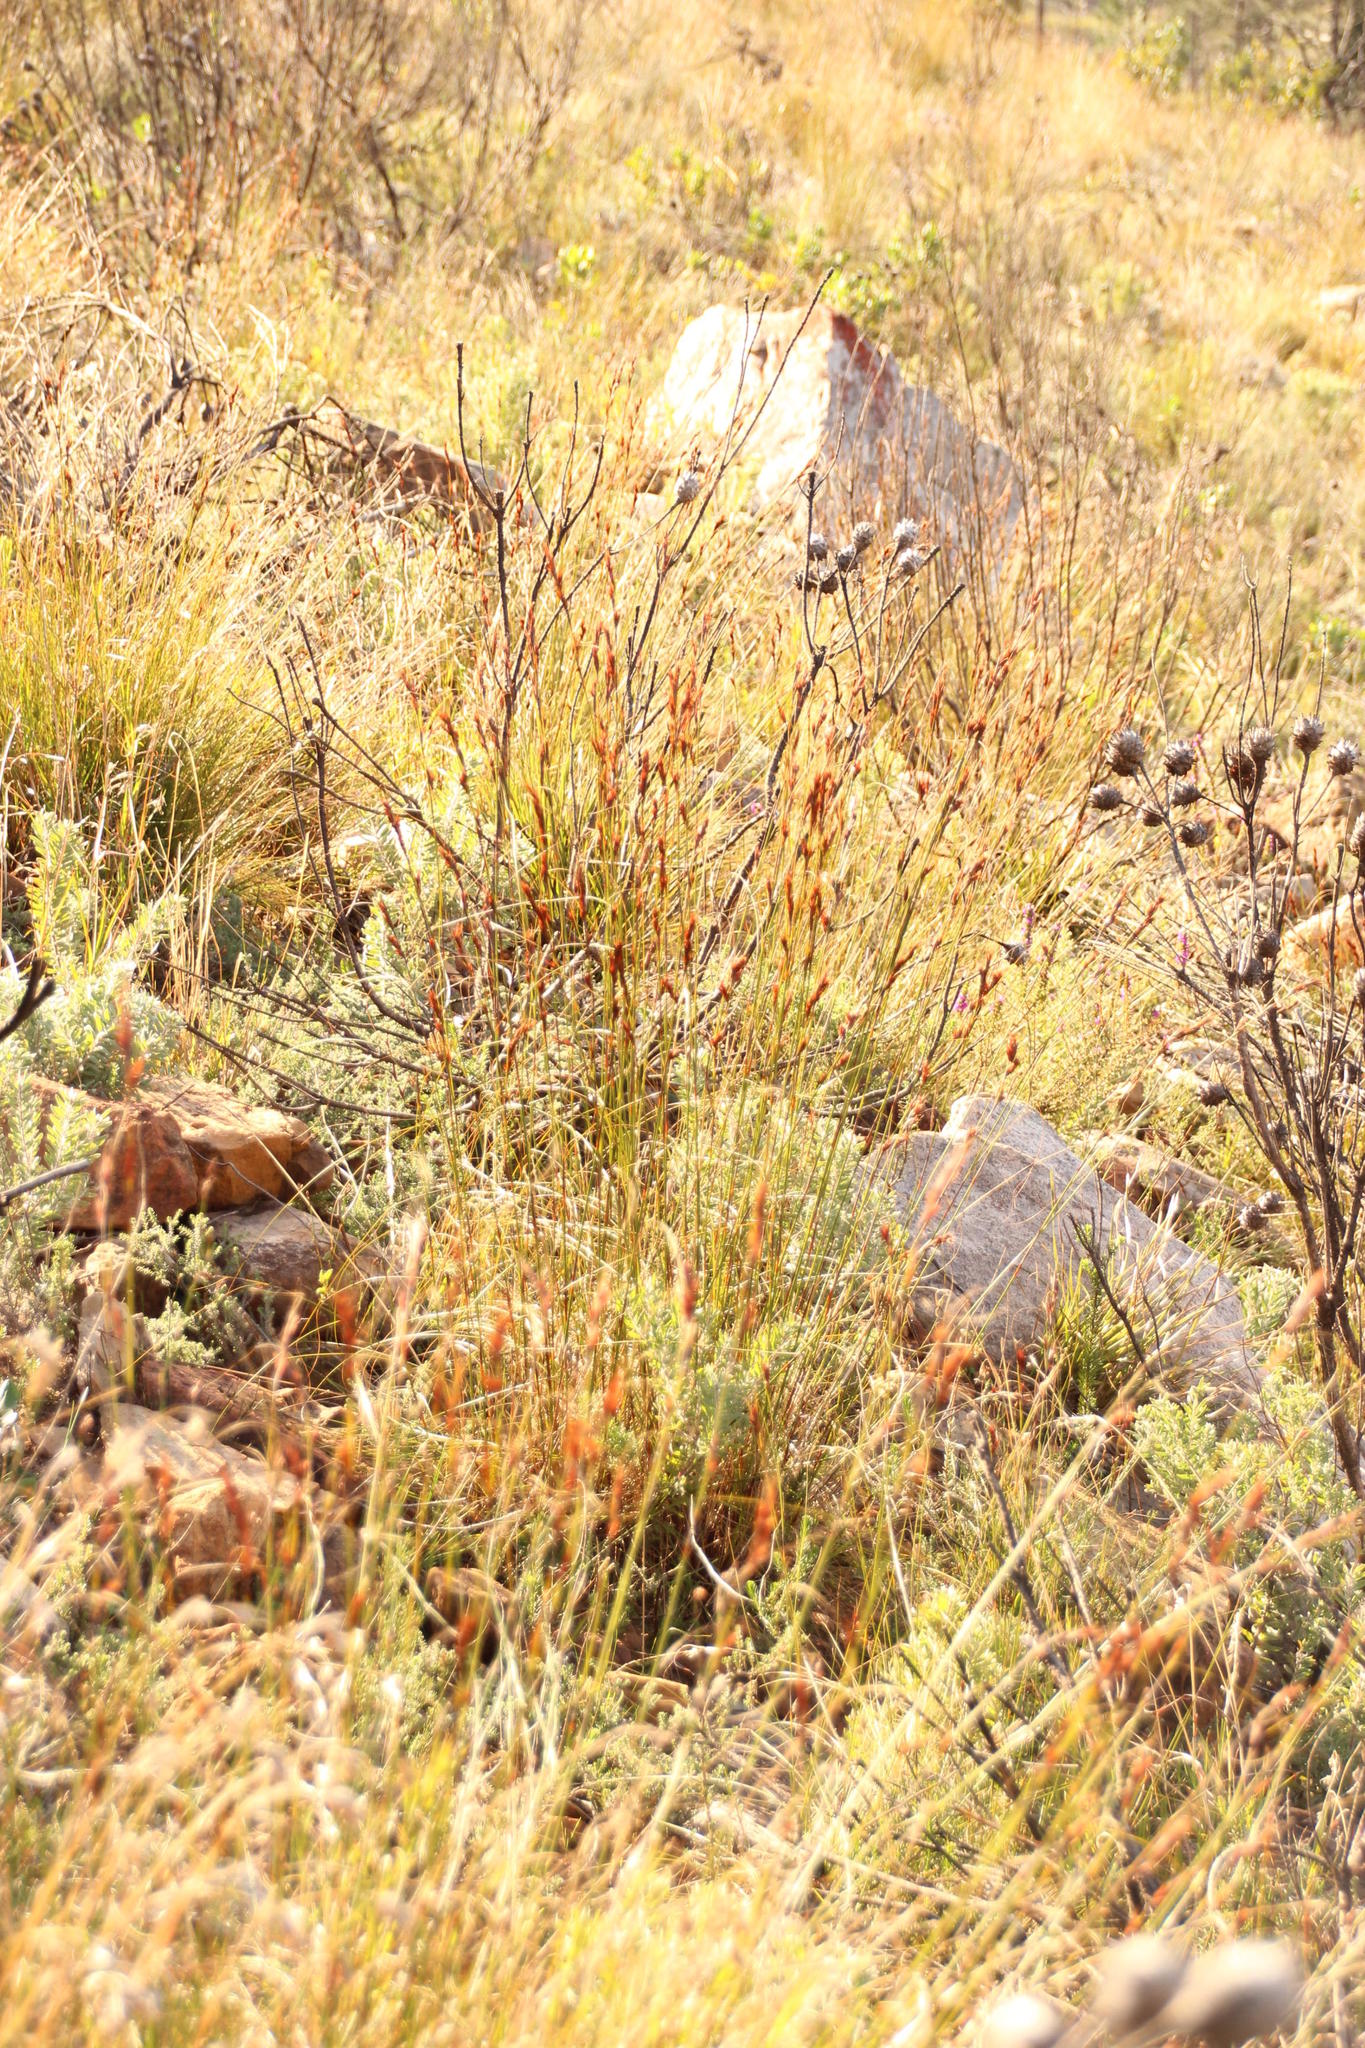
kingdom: Plantae
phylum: Tracheophyta
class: Liliopsida
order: Poales
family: Cyperaceae
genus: Tetraria
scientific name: Tetraria ustulata
